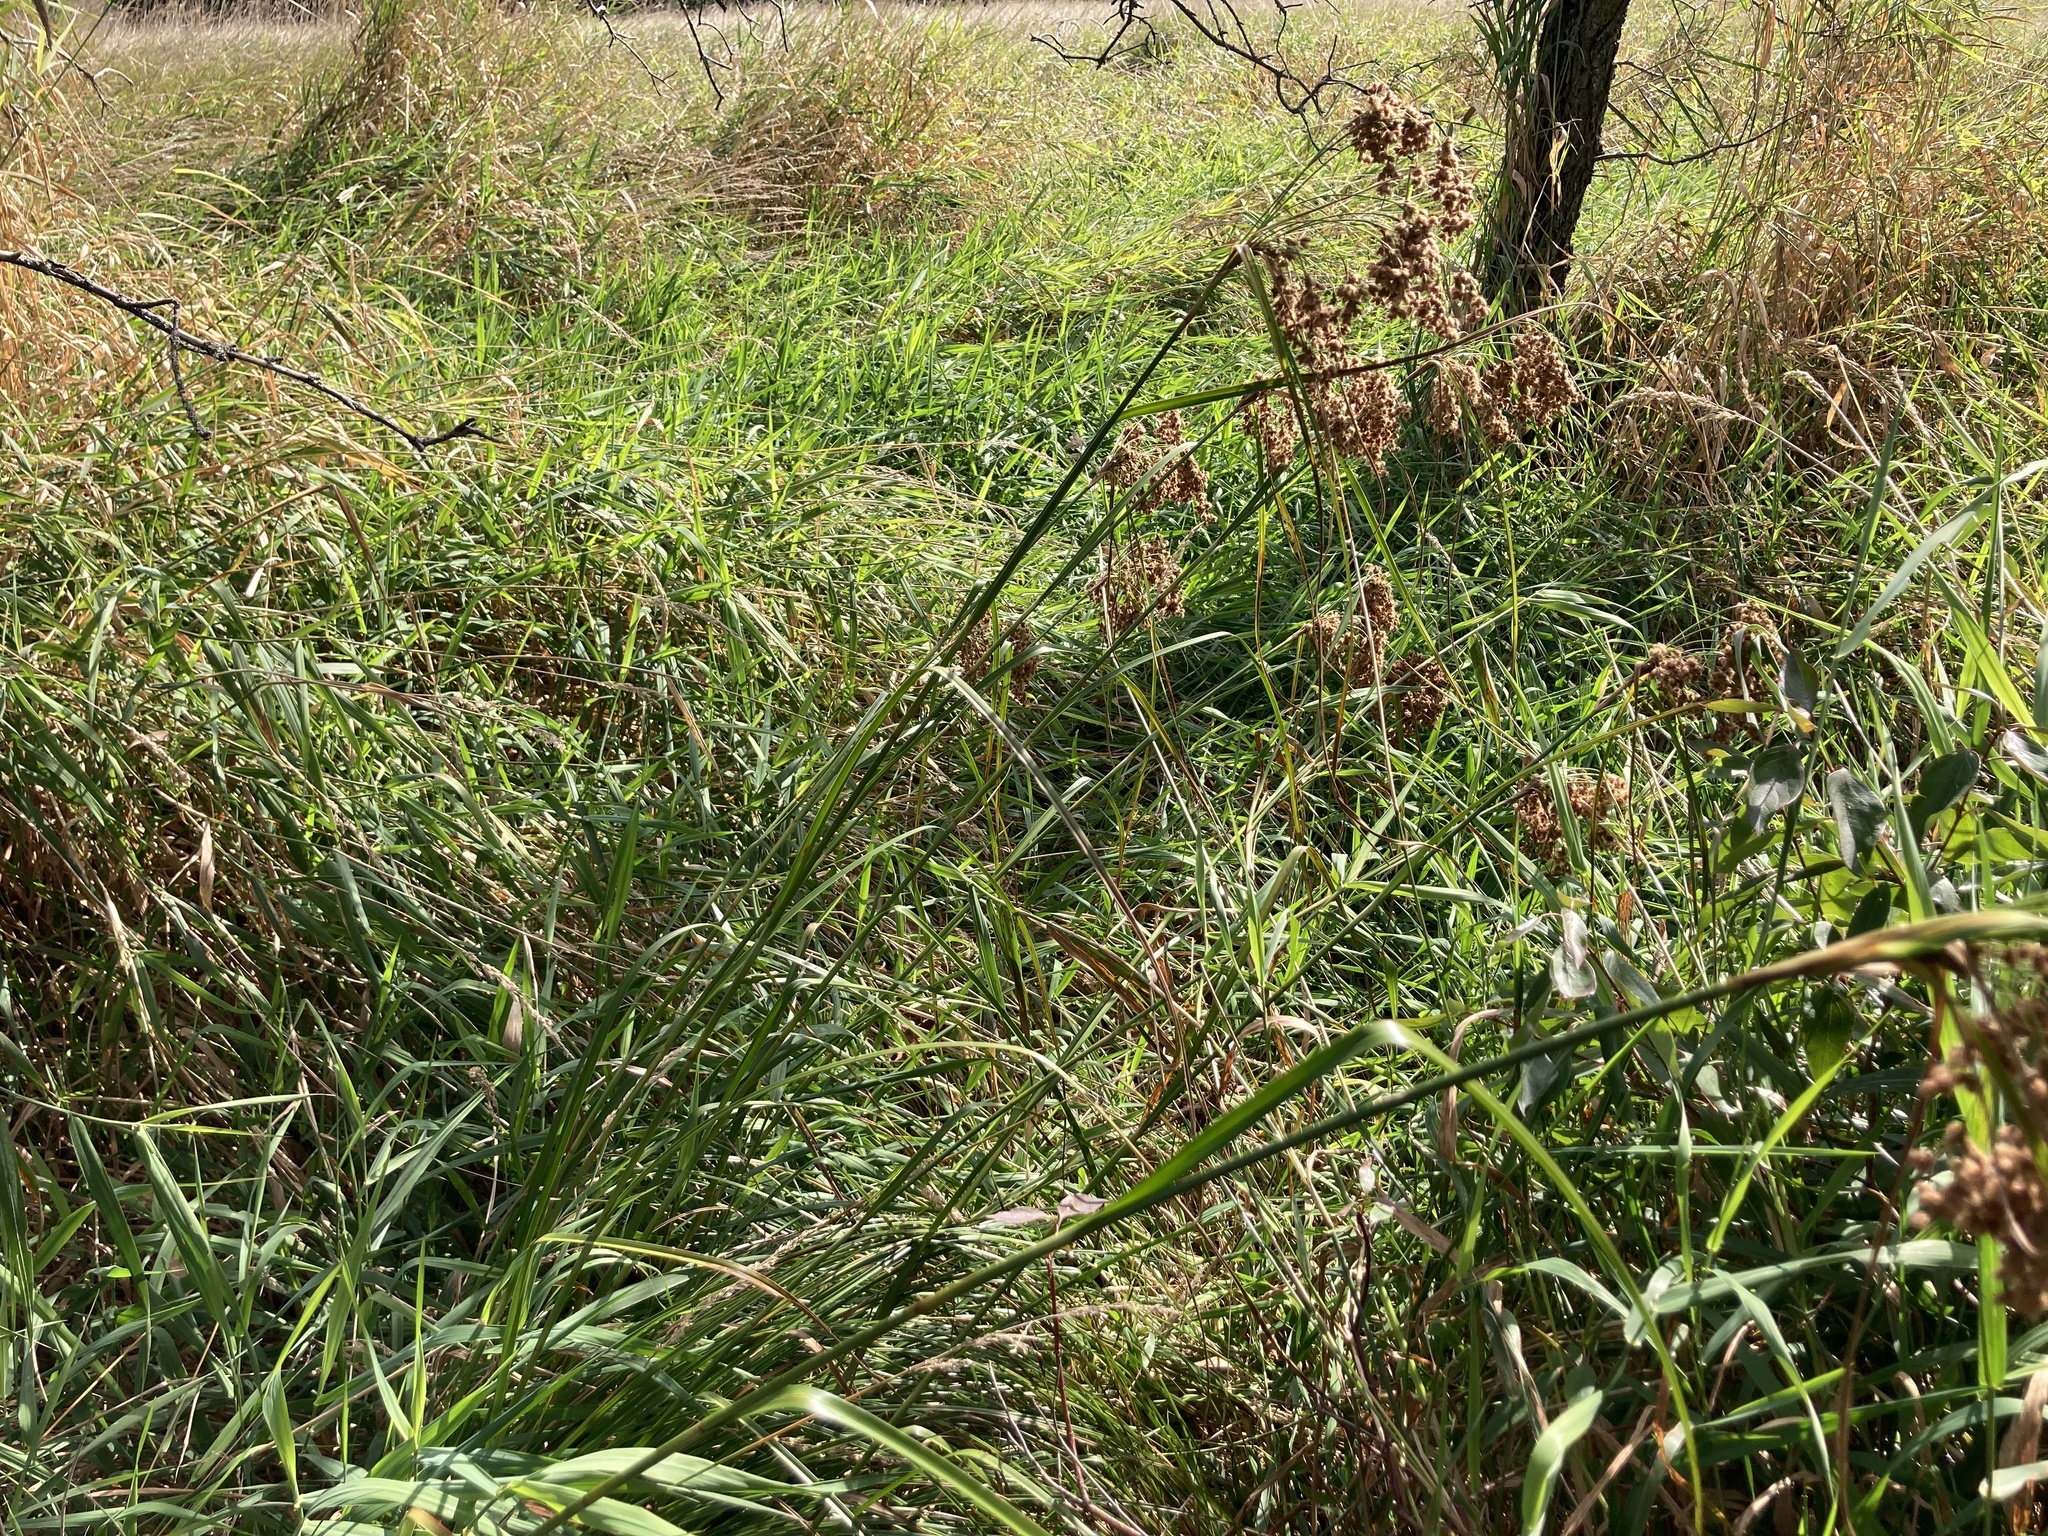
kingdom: Plantae
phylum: Tracheophyta
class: Liliopsida
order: Poales
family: Cyperaceae
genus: Scirpus
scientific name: Scirpus cyperinus
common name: Black-sheathed bulrush
